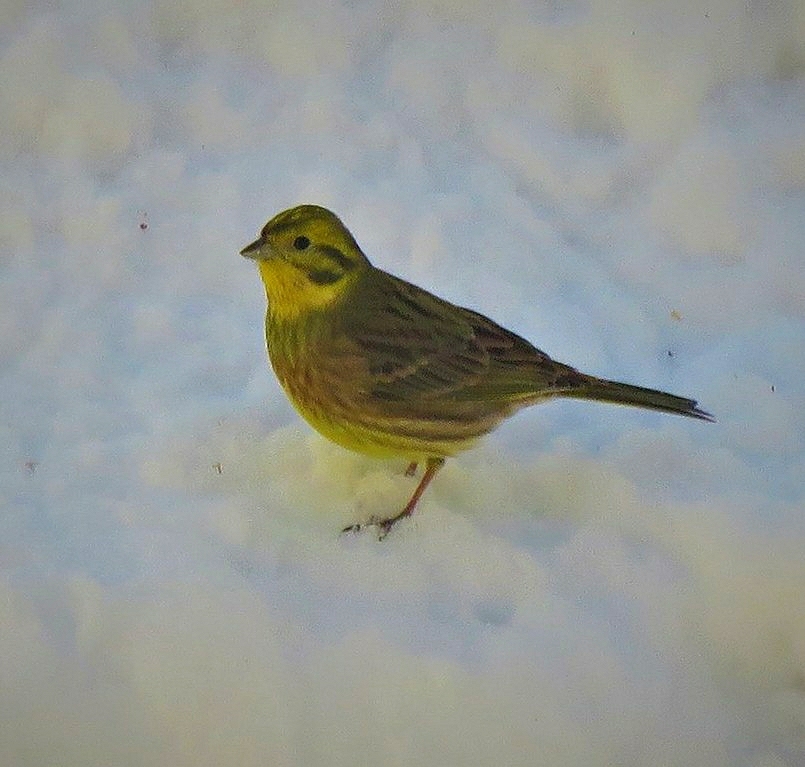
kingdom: Animalia
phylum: Chordata
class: Aves
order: Passeriformes
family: Emberizidae
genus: Emberiza
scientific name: Emberiza citrinella
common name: Yellowhammer
